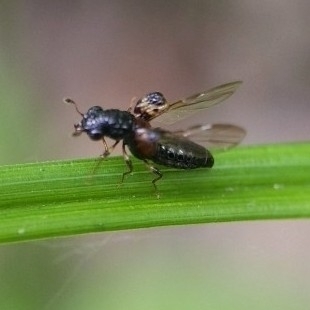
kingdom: Animalia
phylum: Arthropoda
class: Insecta
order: Coleoptera
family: Staphylinidae
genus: Megalopinus
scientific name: Megalopinus caelatus
